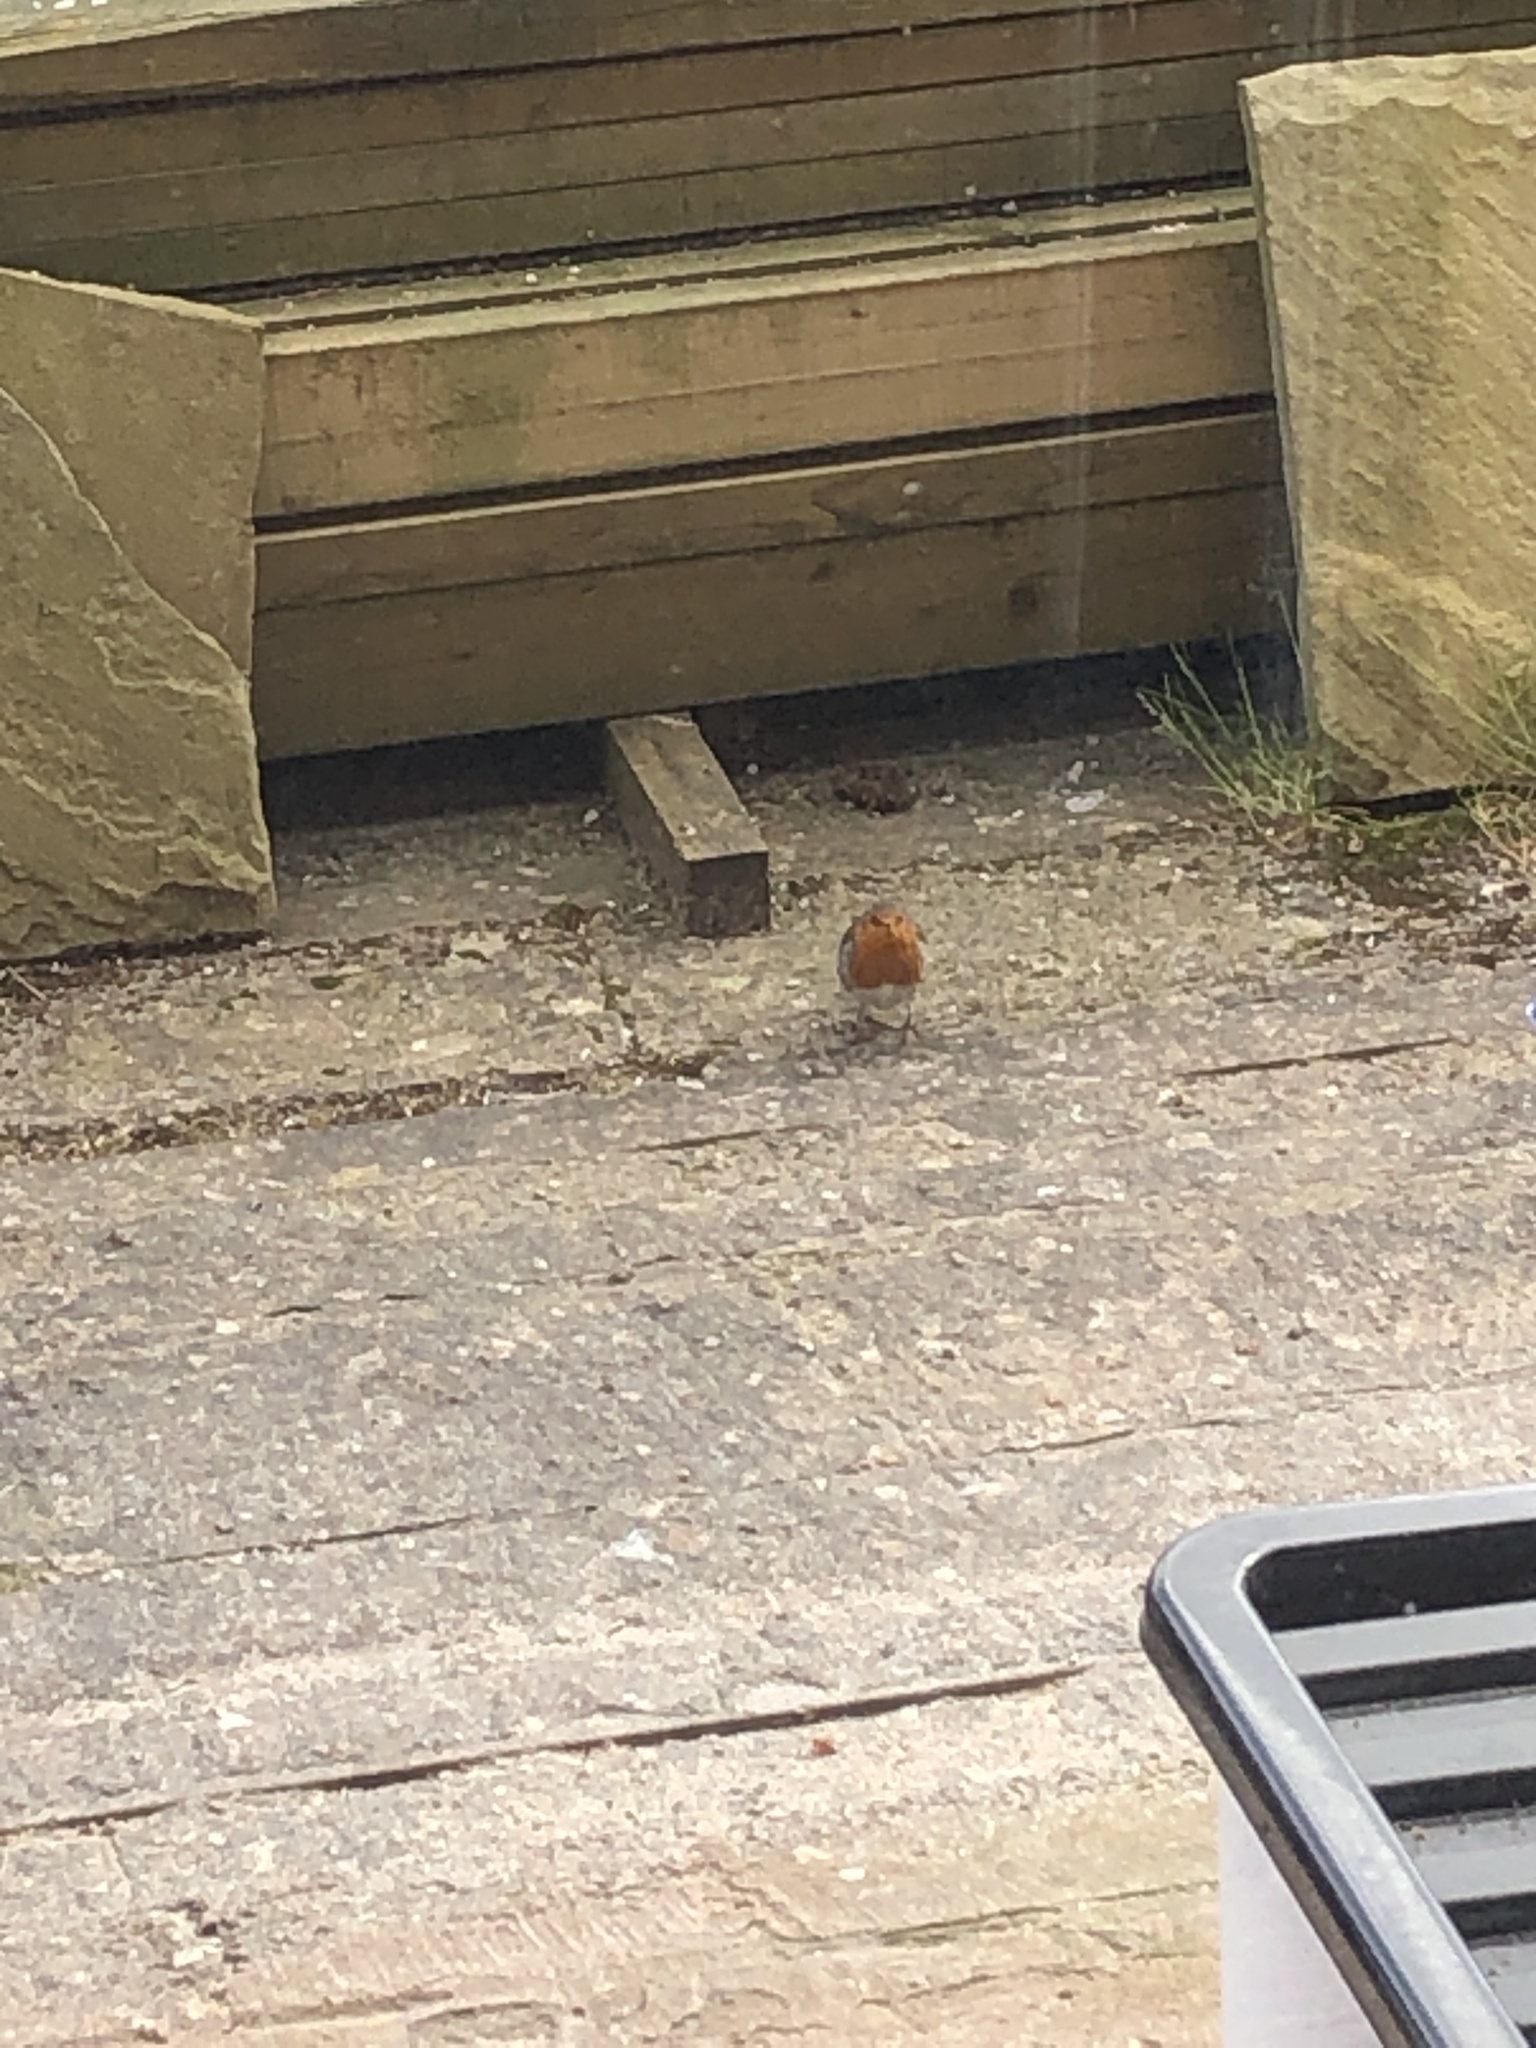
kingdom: Animalia
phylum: Chordata
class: Aves
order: Passeriformes
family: Muscicapidae
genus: Erithacus
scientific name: Erithacus rubecula
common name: European robin
